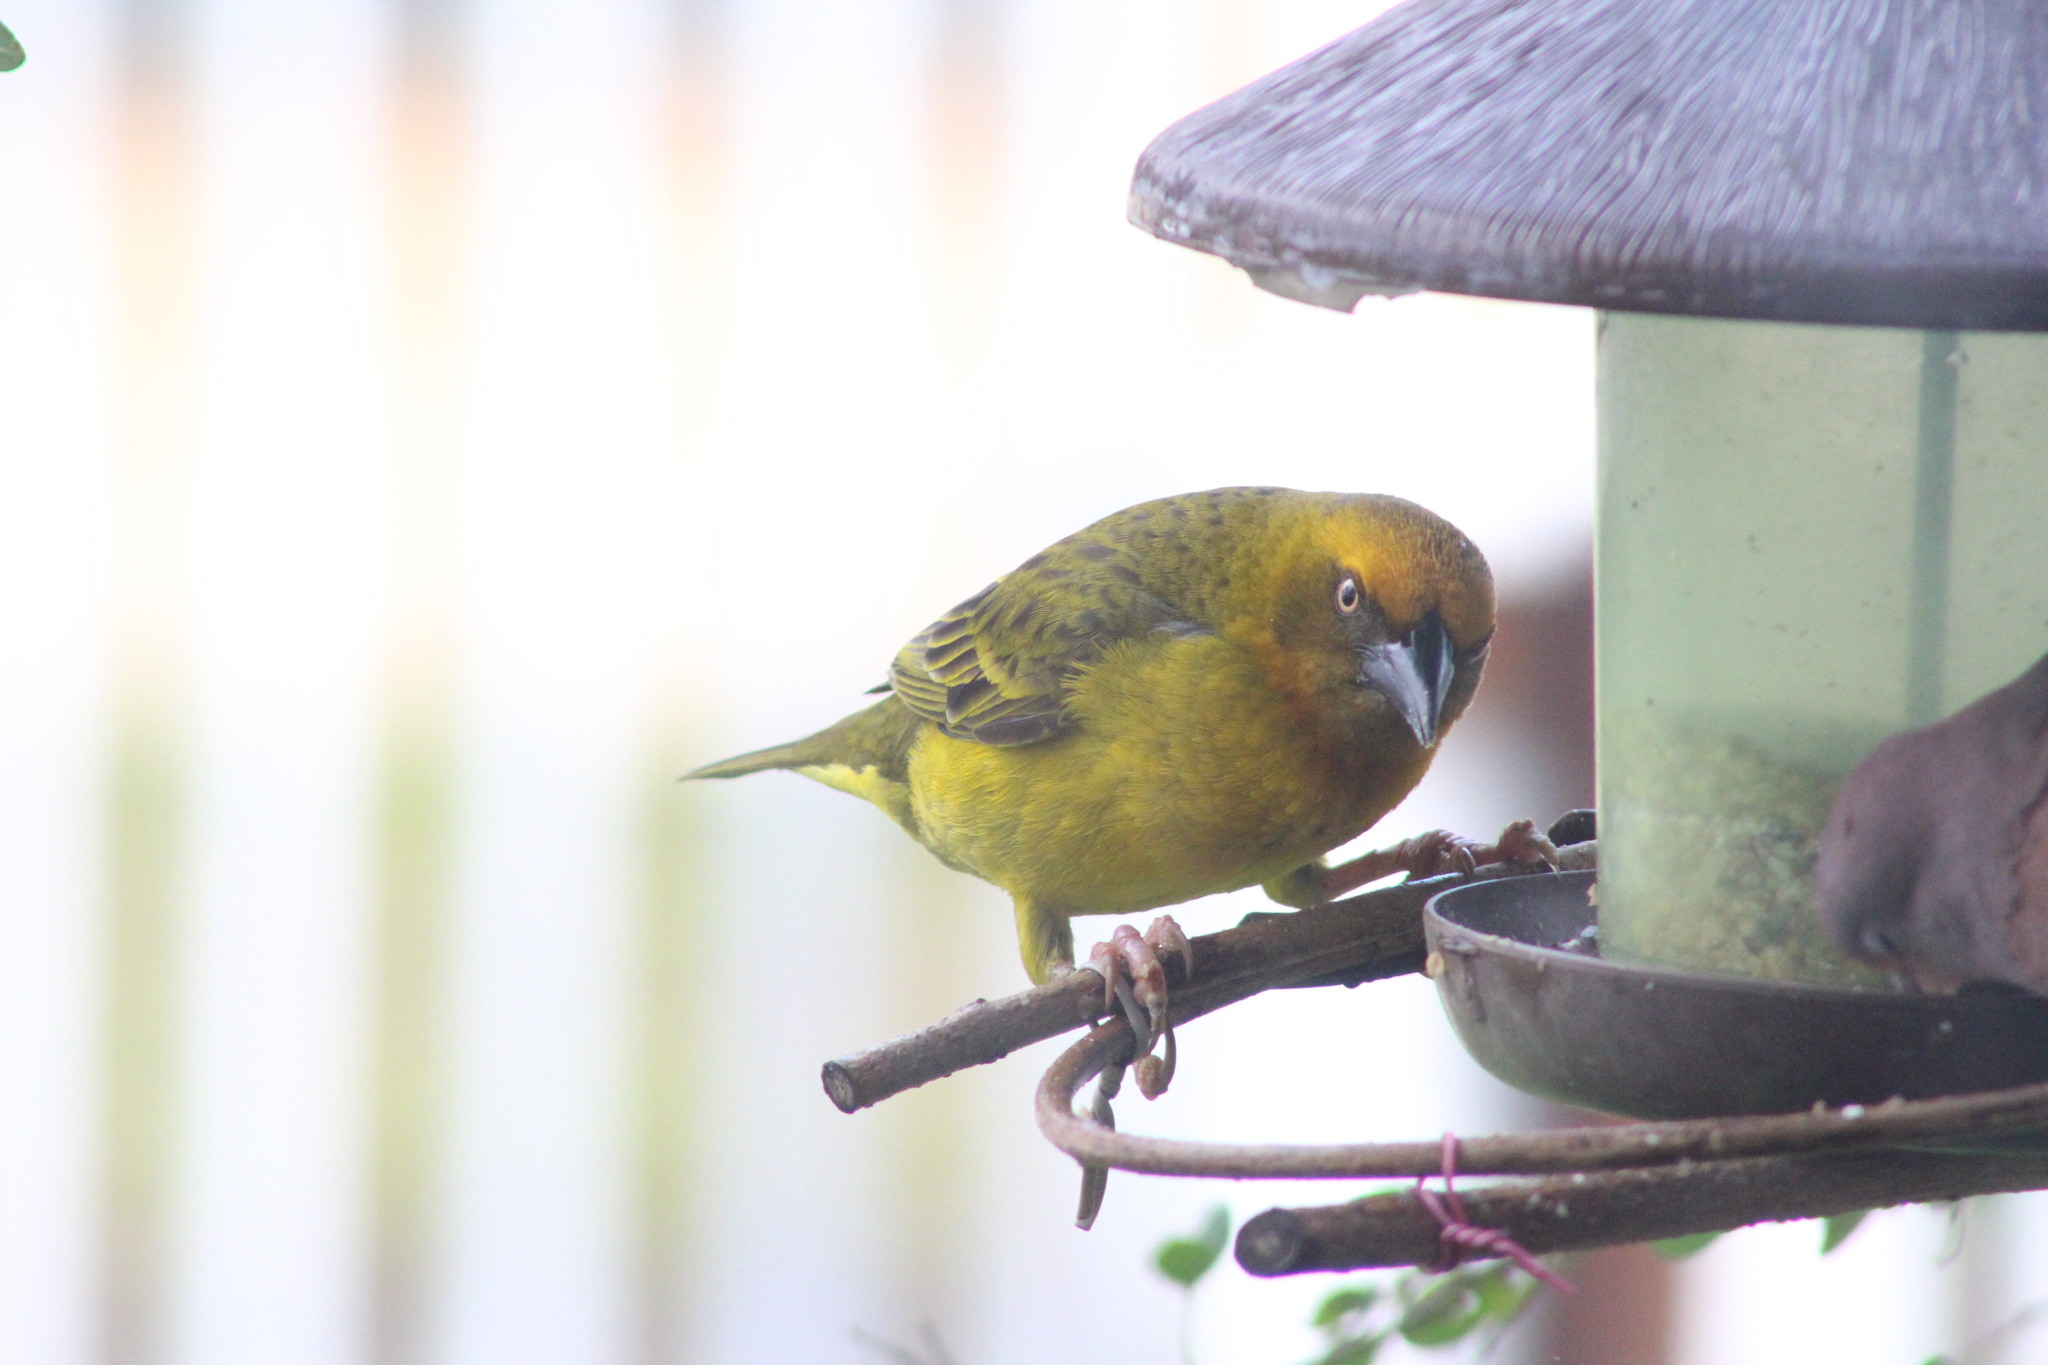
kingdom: Animalia
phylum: Chordata
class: Aves
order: Passeriformes
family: Ploceidae
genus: Ploceus
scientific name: Ploceus capensis
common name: Cape weaver
